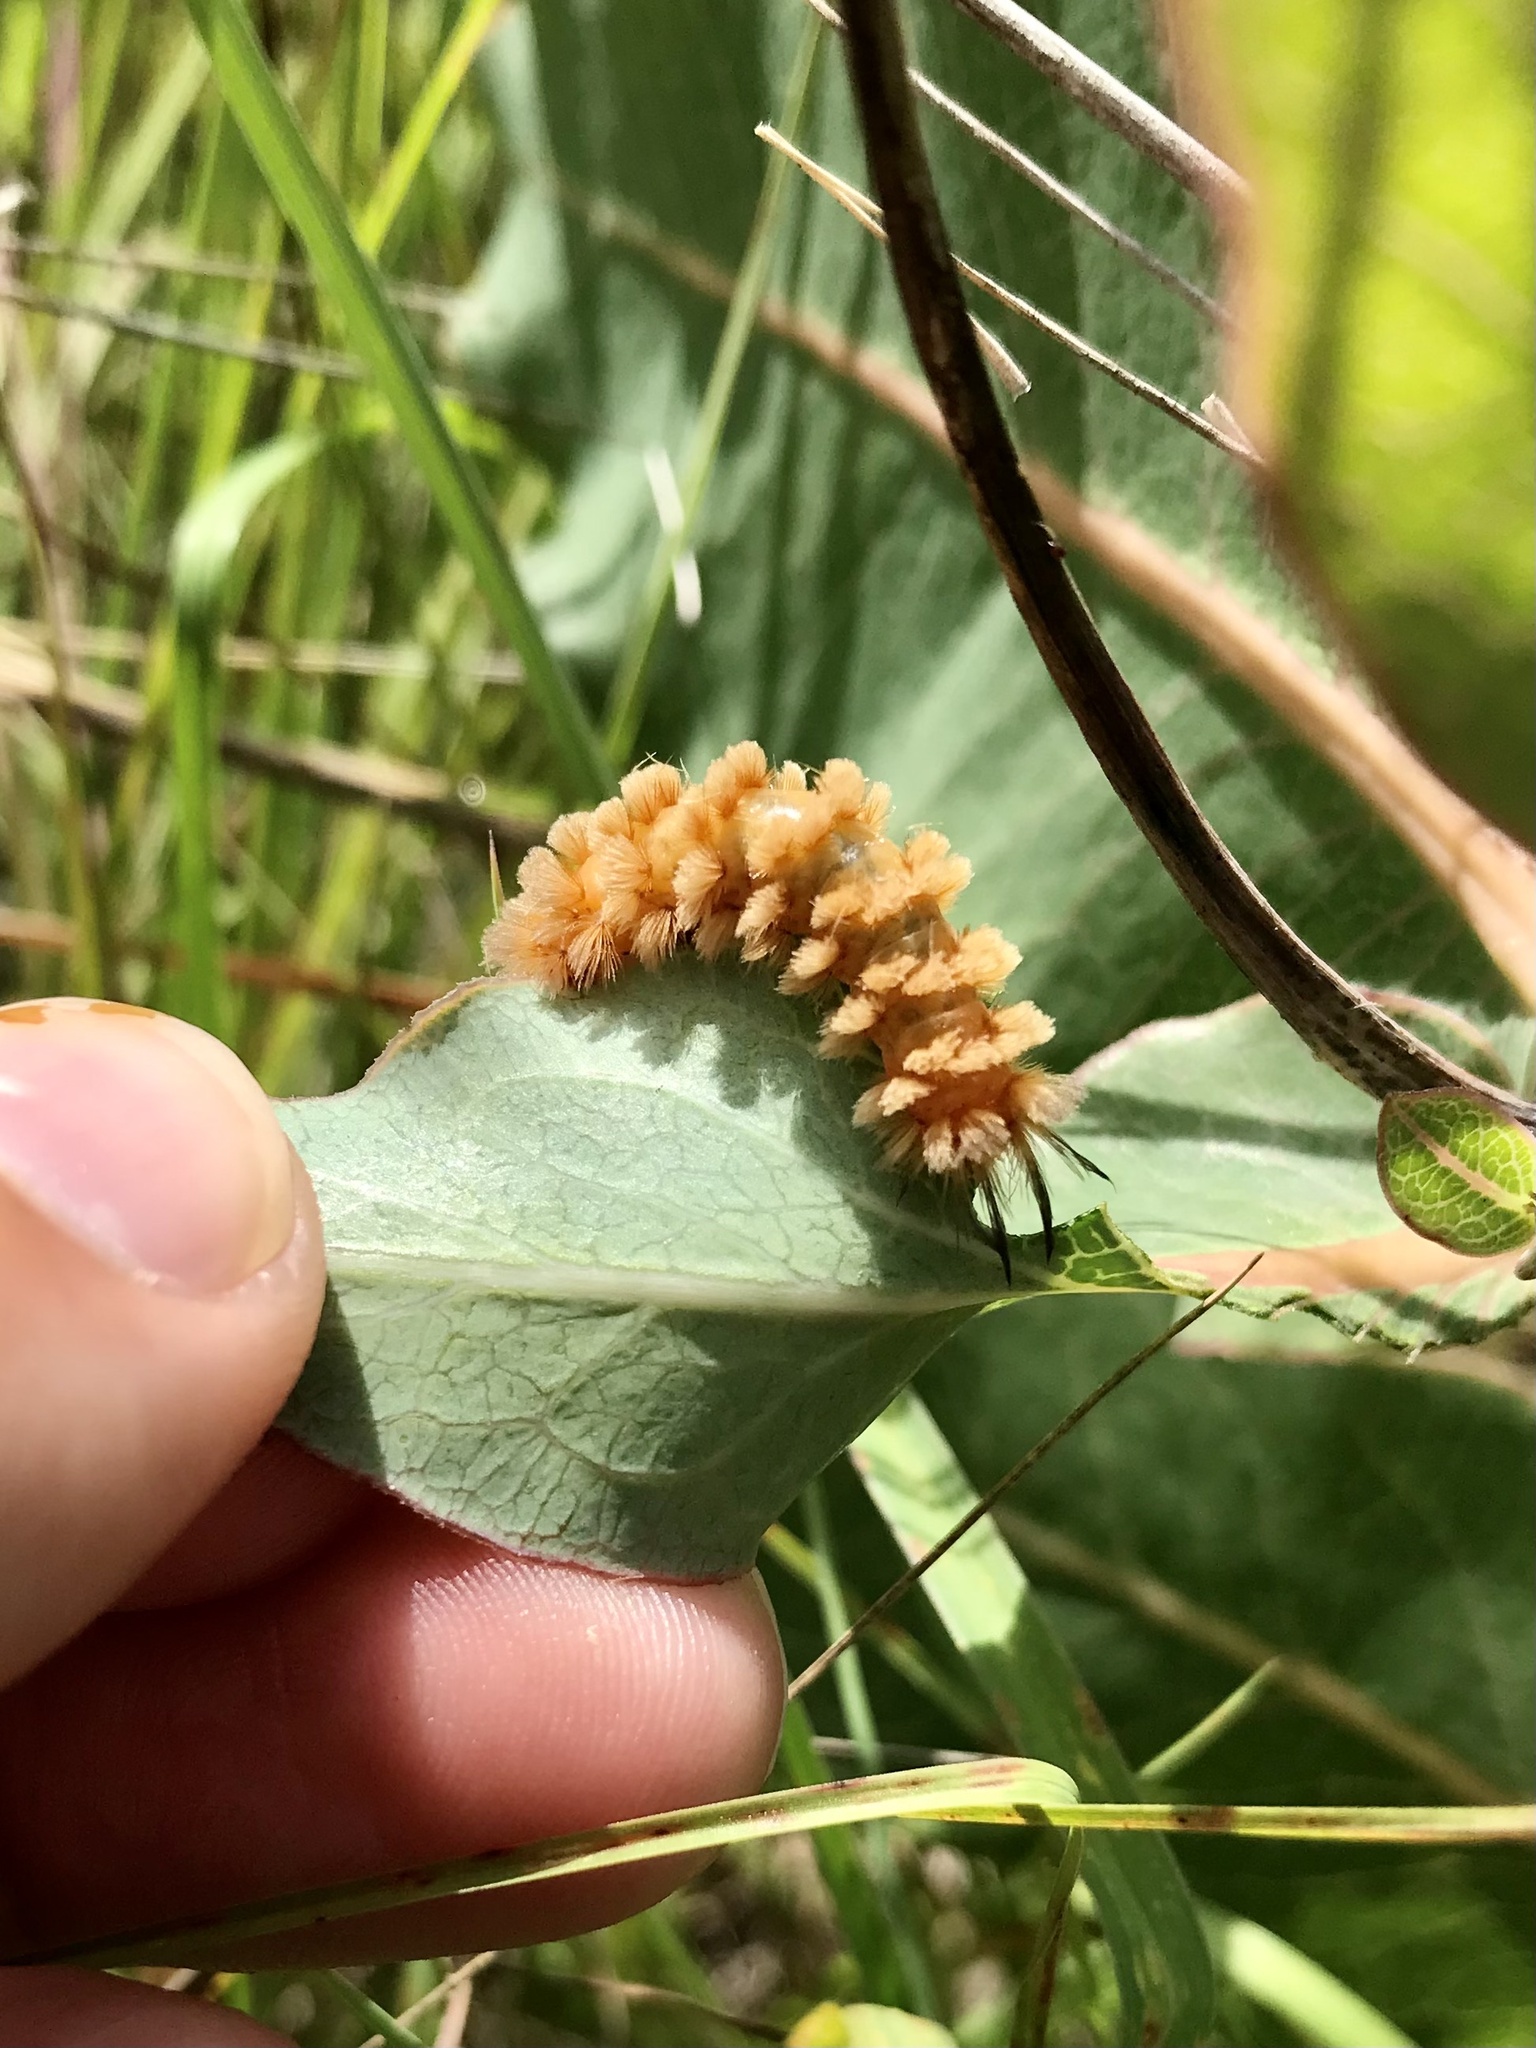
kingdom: Animalia
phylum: Arthropoda
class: Insecta
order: Lepidoptera
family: Erebidae
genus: Cycnia
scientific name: Cycnia collaris
